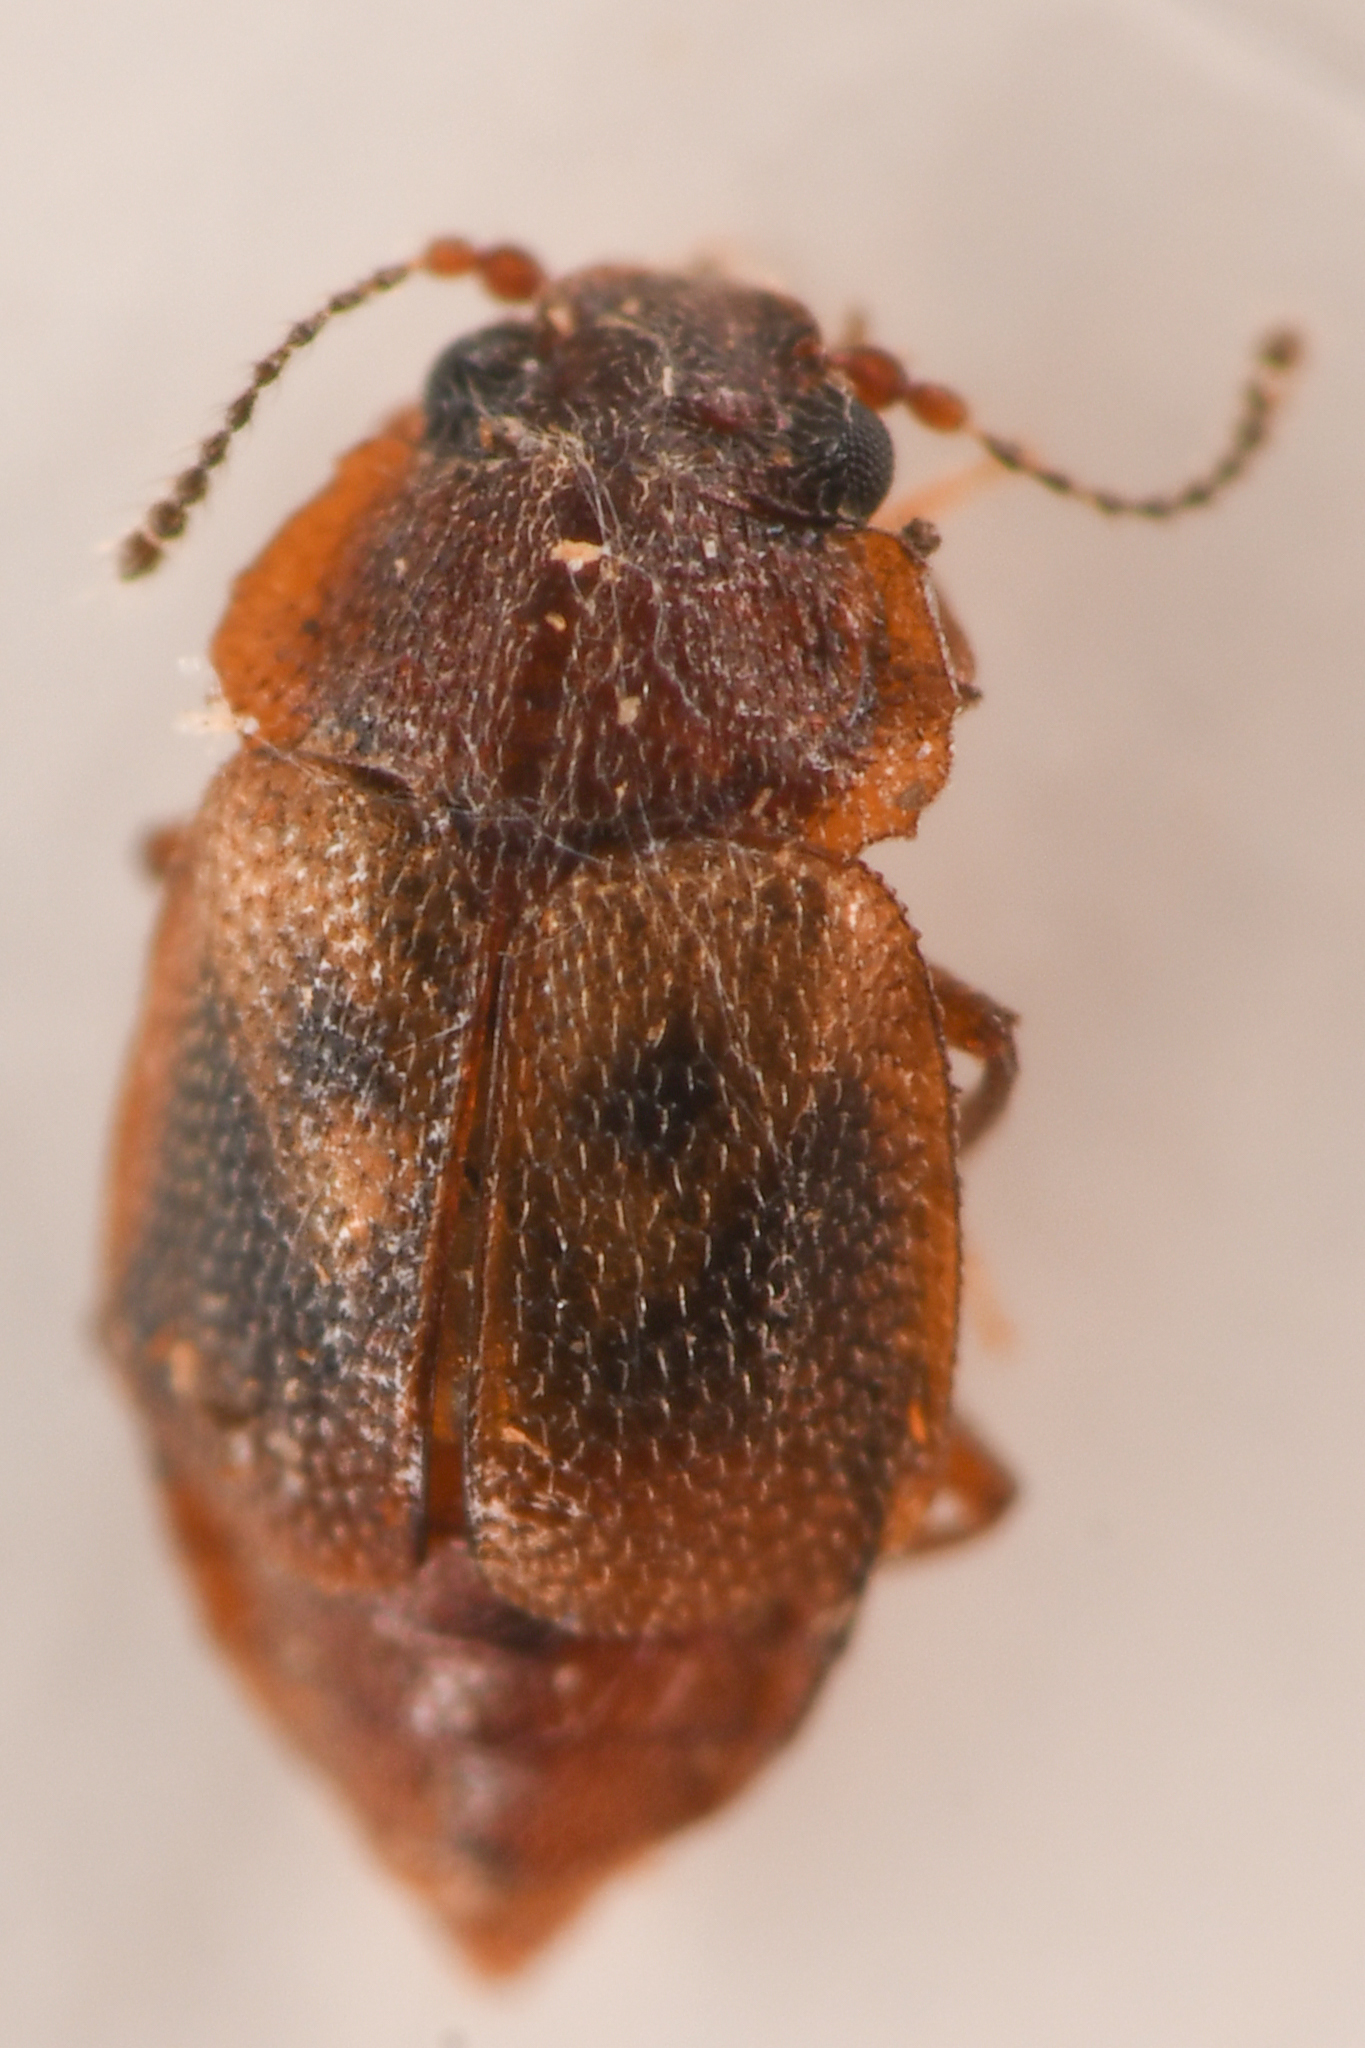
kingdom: Animalia
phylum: Arthropoda
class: Insecta
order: Coleoptera
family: Staphylinidae
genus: Megarthrus
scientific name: Megarthrus pictus
